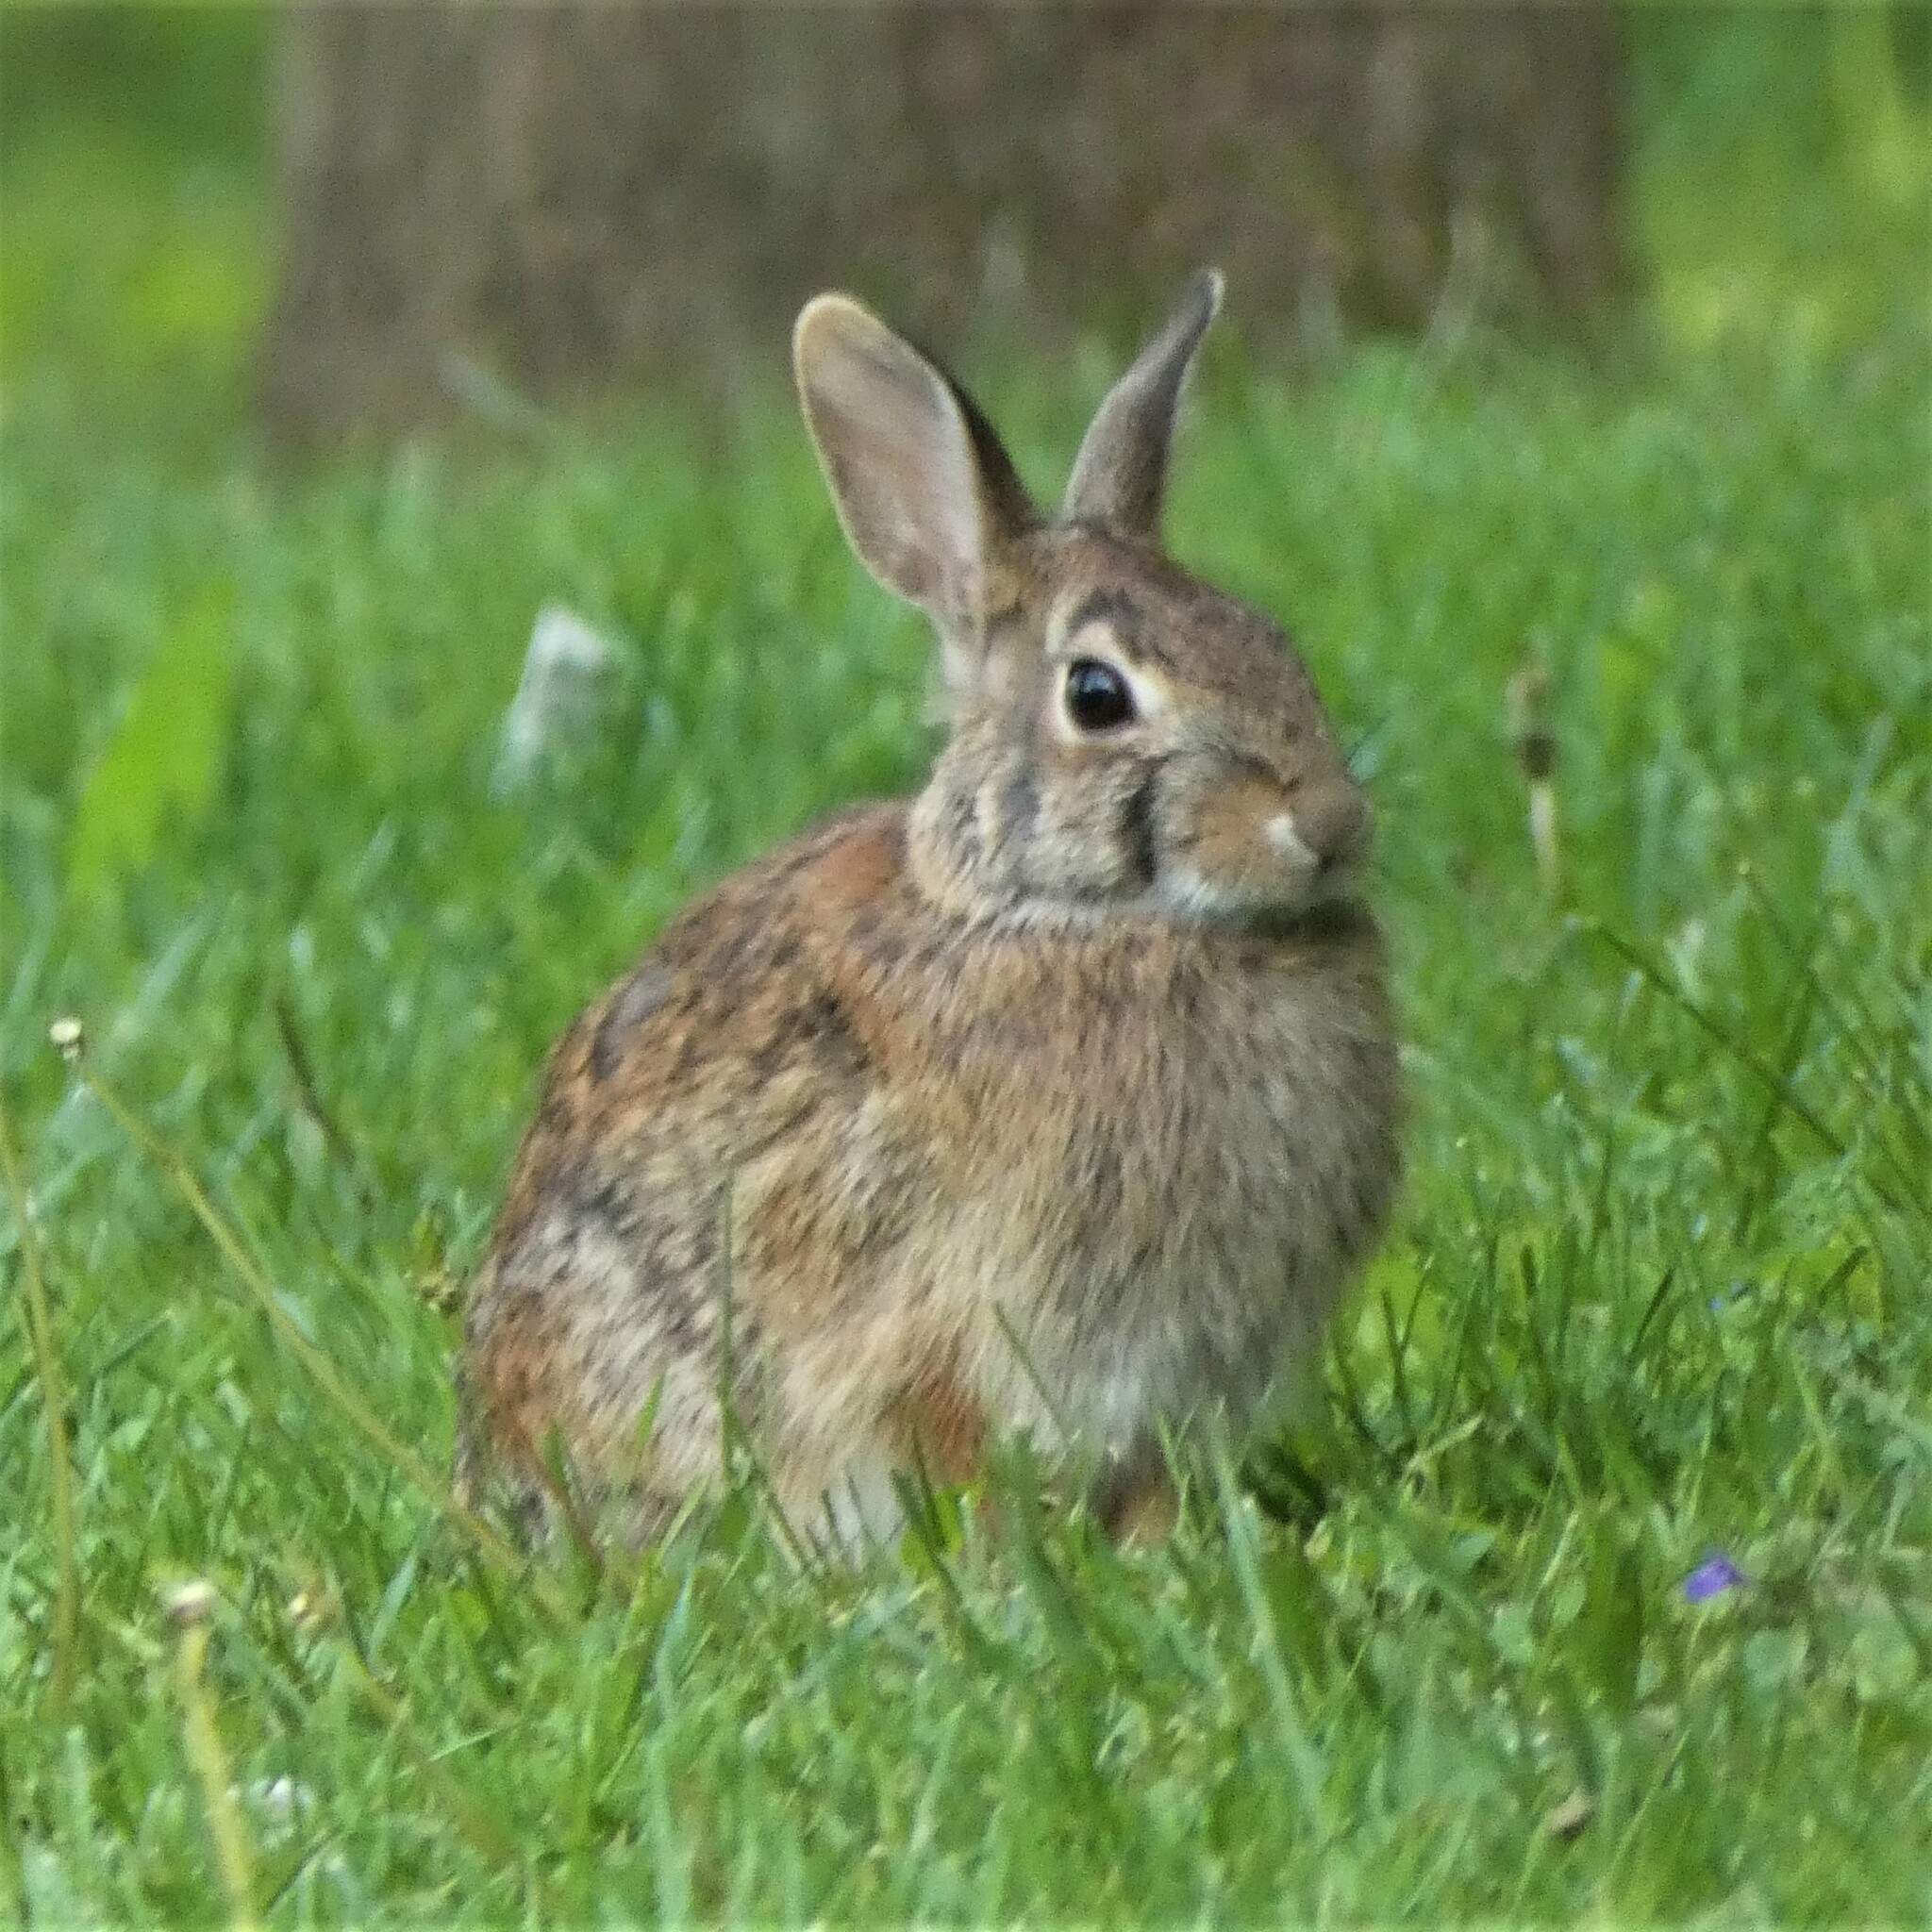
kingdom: Animalia
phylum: Chordata
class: Mammalia
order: Lagomorpha
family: Leporidae
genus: Sylvilagus
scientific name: Sylvilagus floridanus
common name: Eastern cottontail
